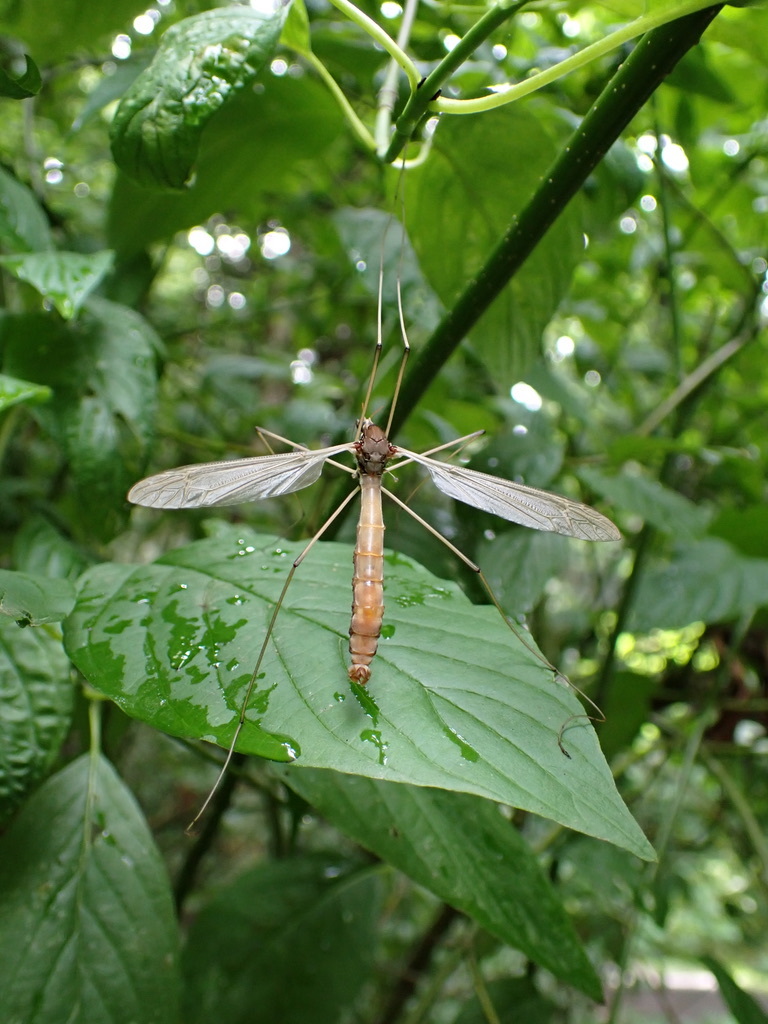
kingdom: Animalia
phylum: Arthropoda
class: Insecta
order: Diptera
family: Tipulidae
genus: Holorusia
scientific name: Holorusia hespera
